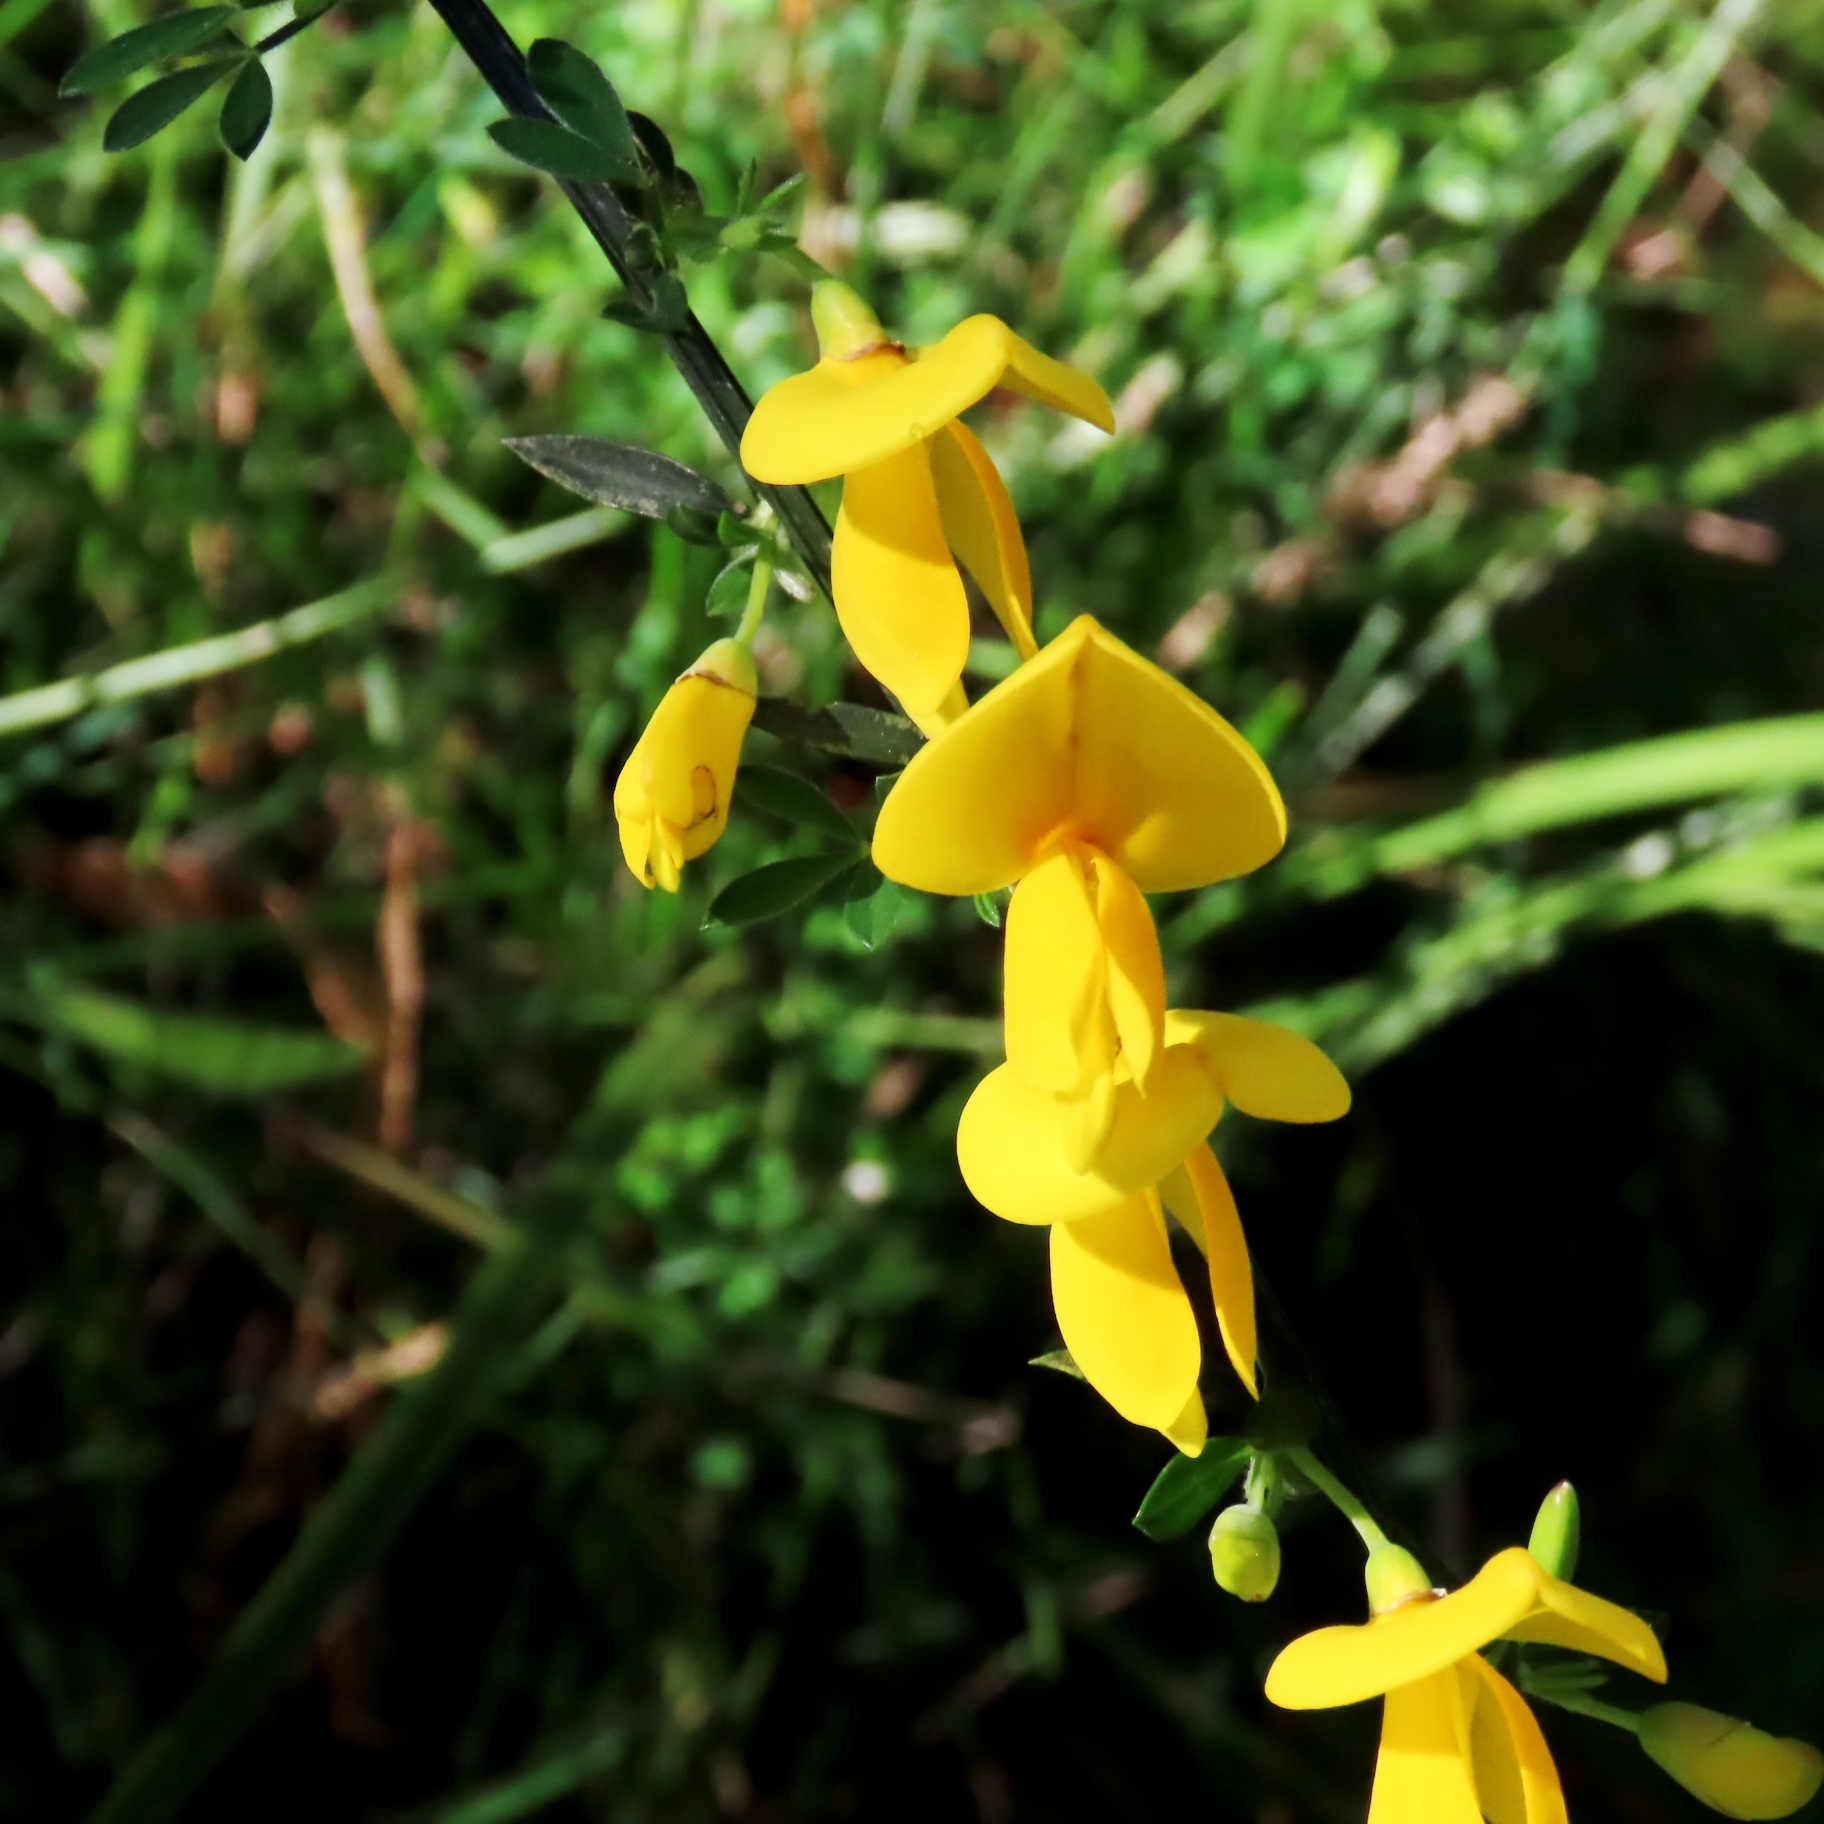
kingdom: Plantae
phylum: Tracheophyta
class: Magnoliopsida
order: Fabales
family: Fabaceae
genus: Cytisus
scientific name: Cytisus scoparius
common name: Scotch broom
